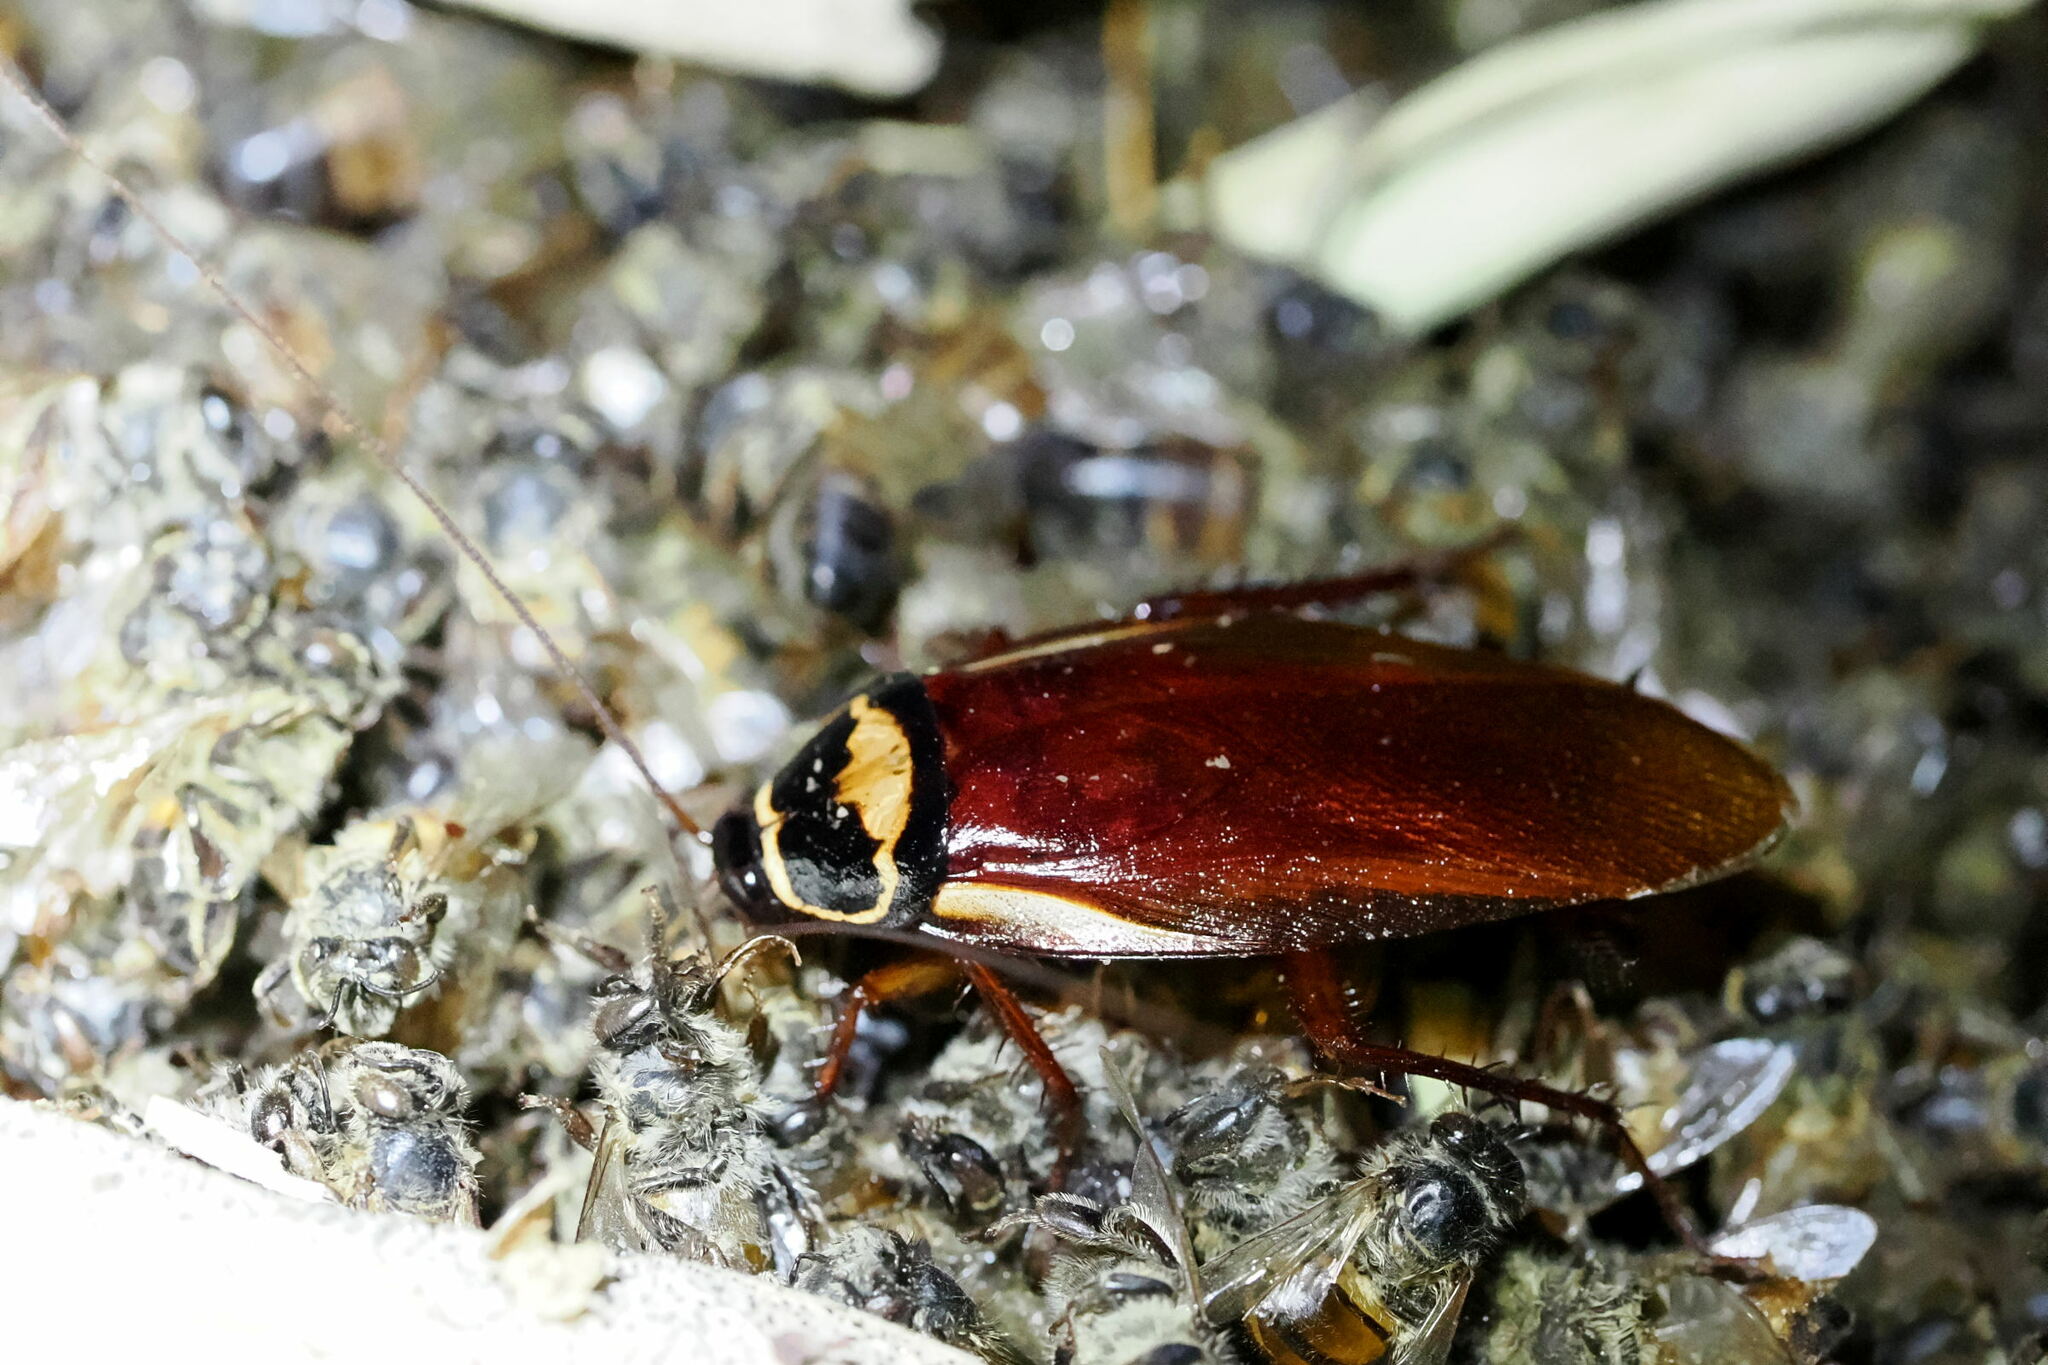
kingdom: Animalia
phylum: Arthropoda
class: Insecta
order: Blattodea
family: Blattidae
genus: Periplaneta
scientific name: Periplaneta australasiae
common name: Australian cockroach
